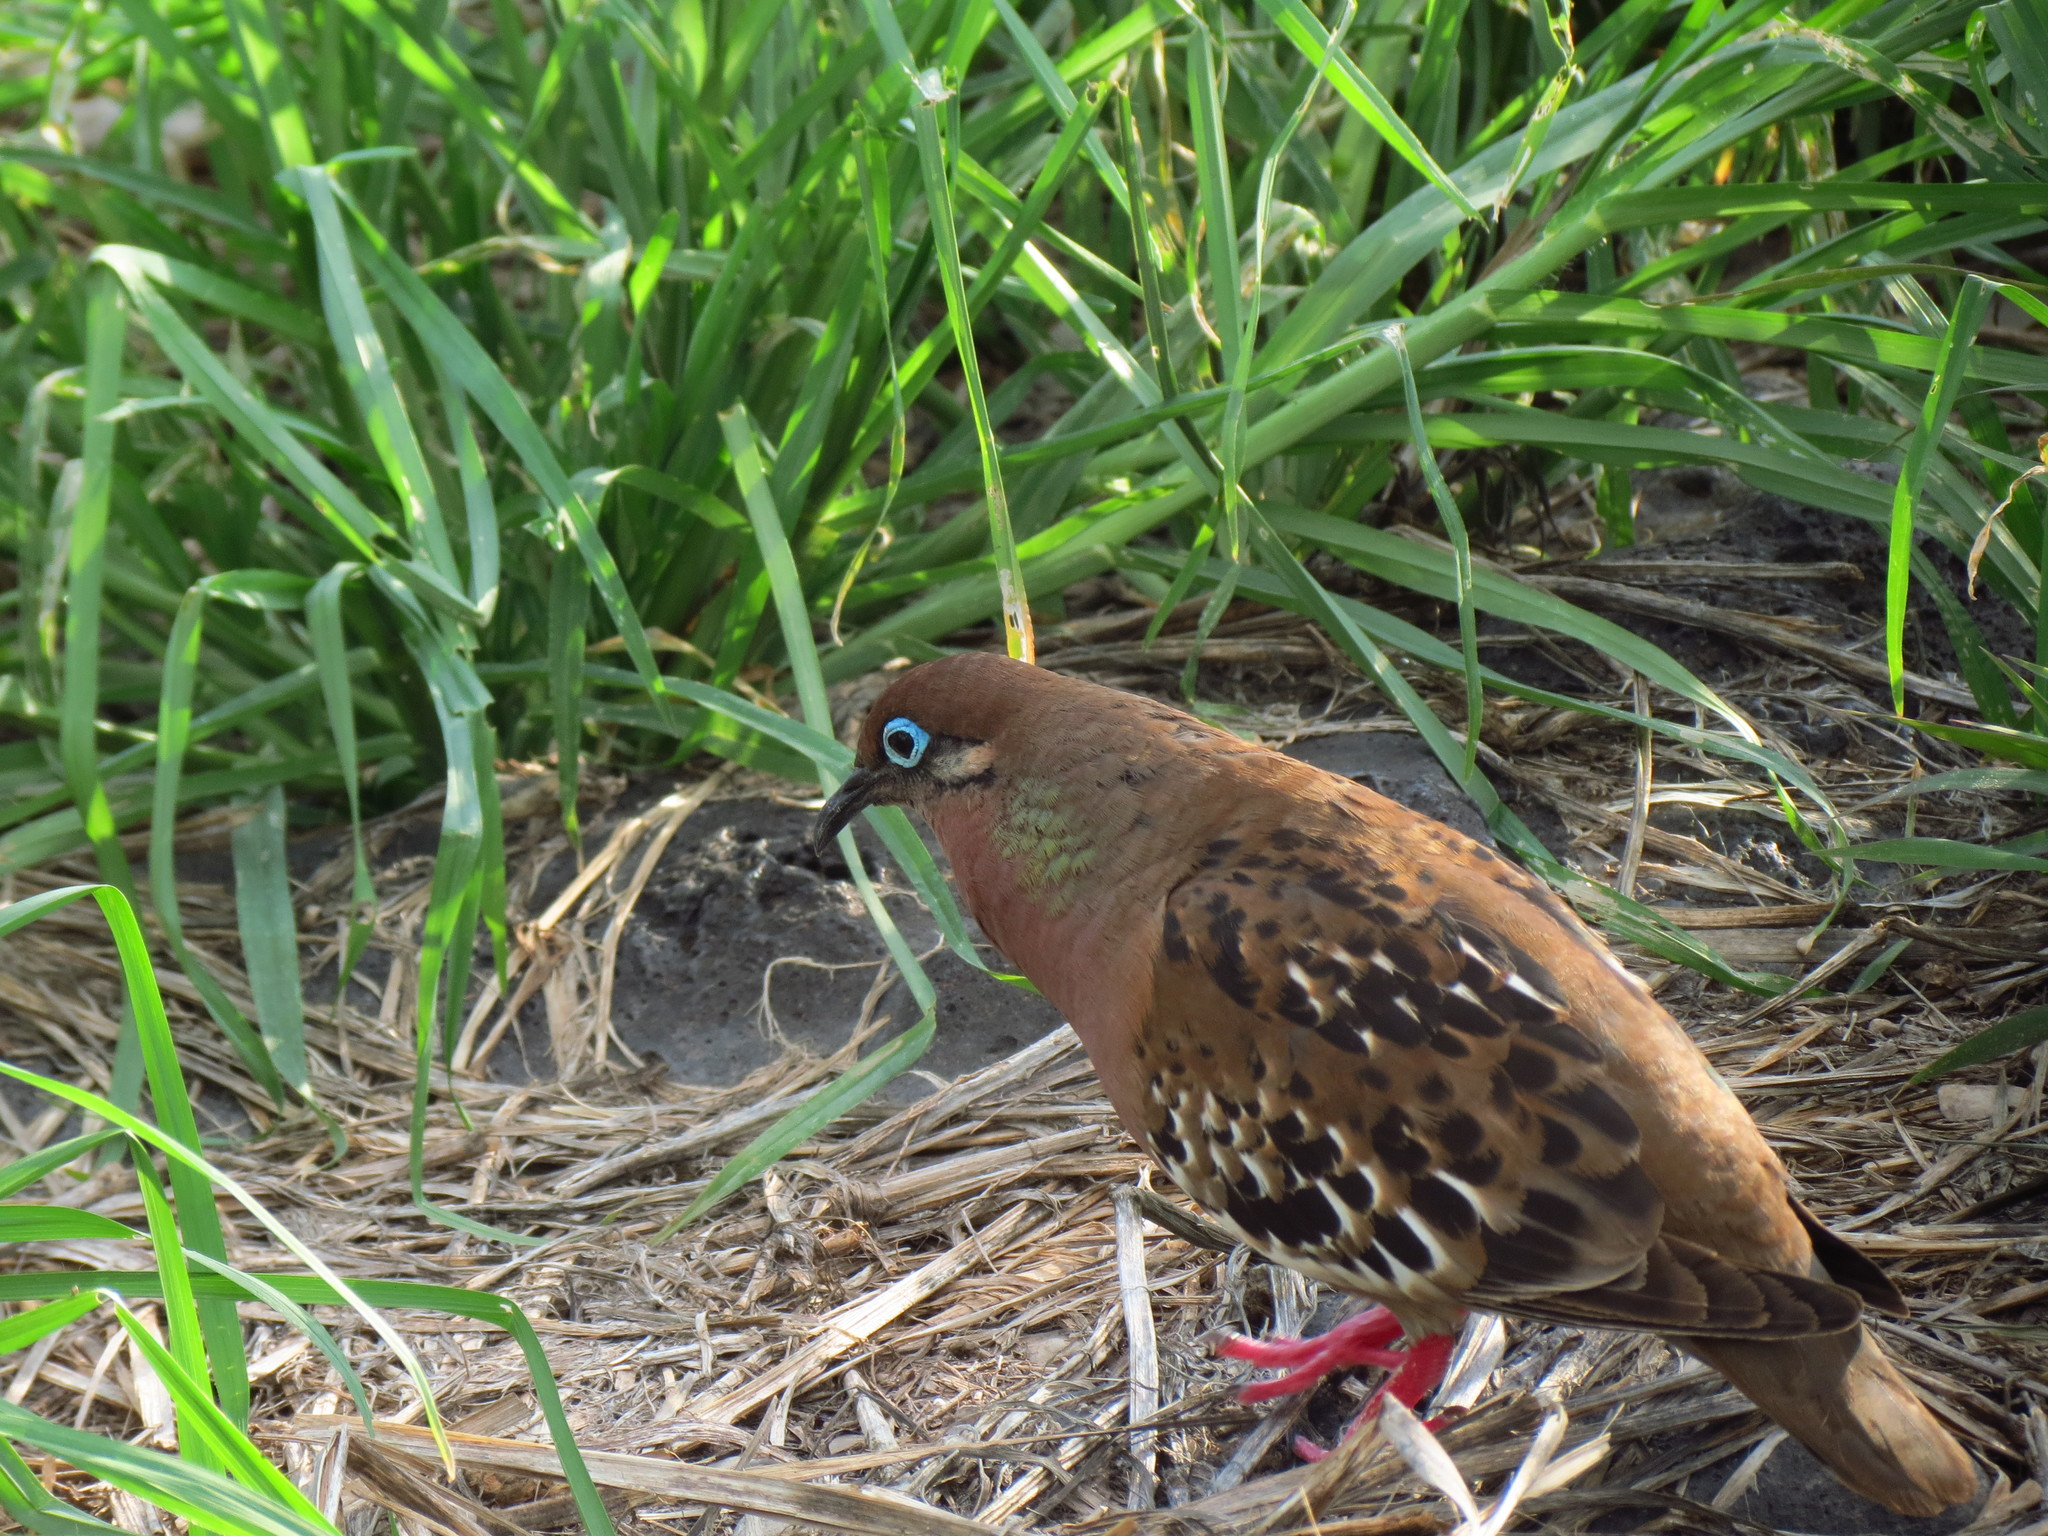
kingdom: Animalia
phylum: Chordata
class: Aves
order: Columbiformes
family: Columbidae
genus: Zenaida
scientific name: Zenaida galapagoensis
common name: Galapagos dove
